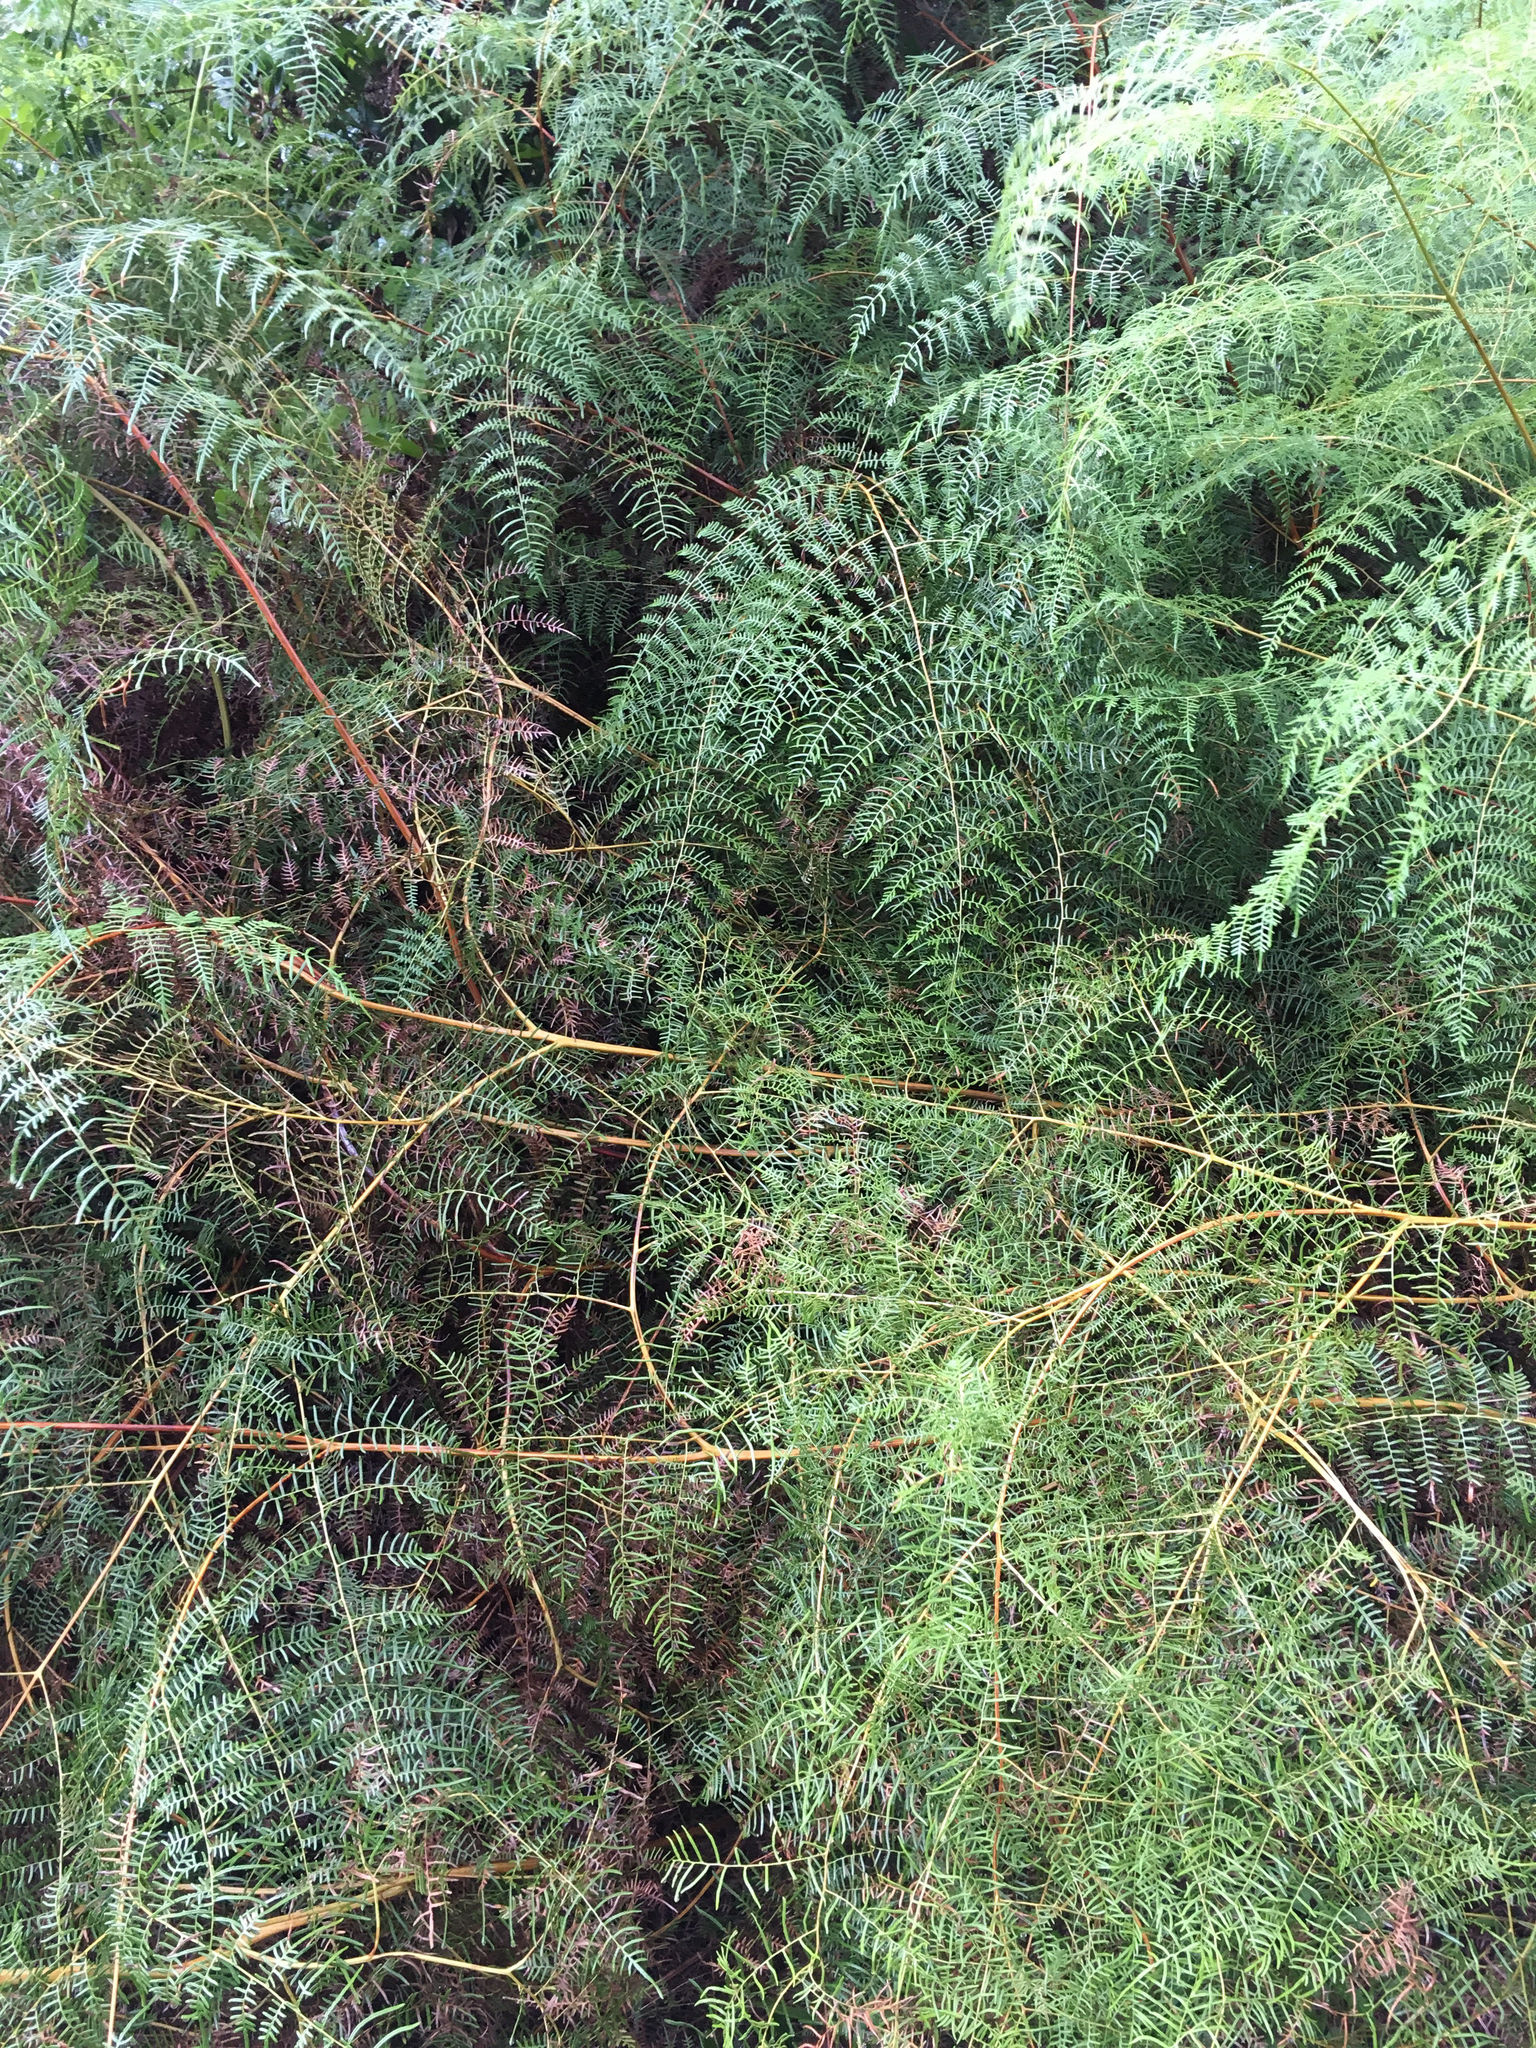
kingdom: Plantae
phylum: Tracheophyta
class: Polypodiopsida
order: Polypodiales
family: Dennstaedtiaceae
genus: Pteridium
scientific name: Pteridium caudatum
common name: Southern bracken fern
